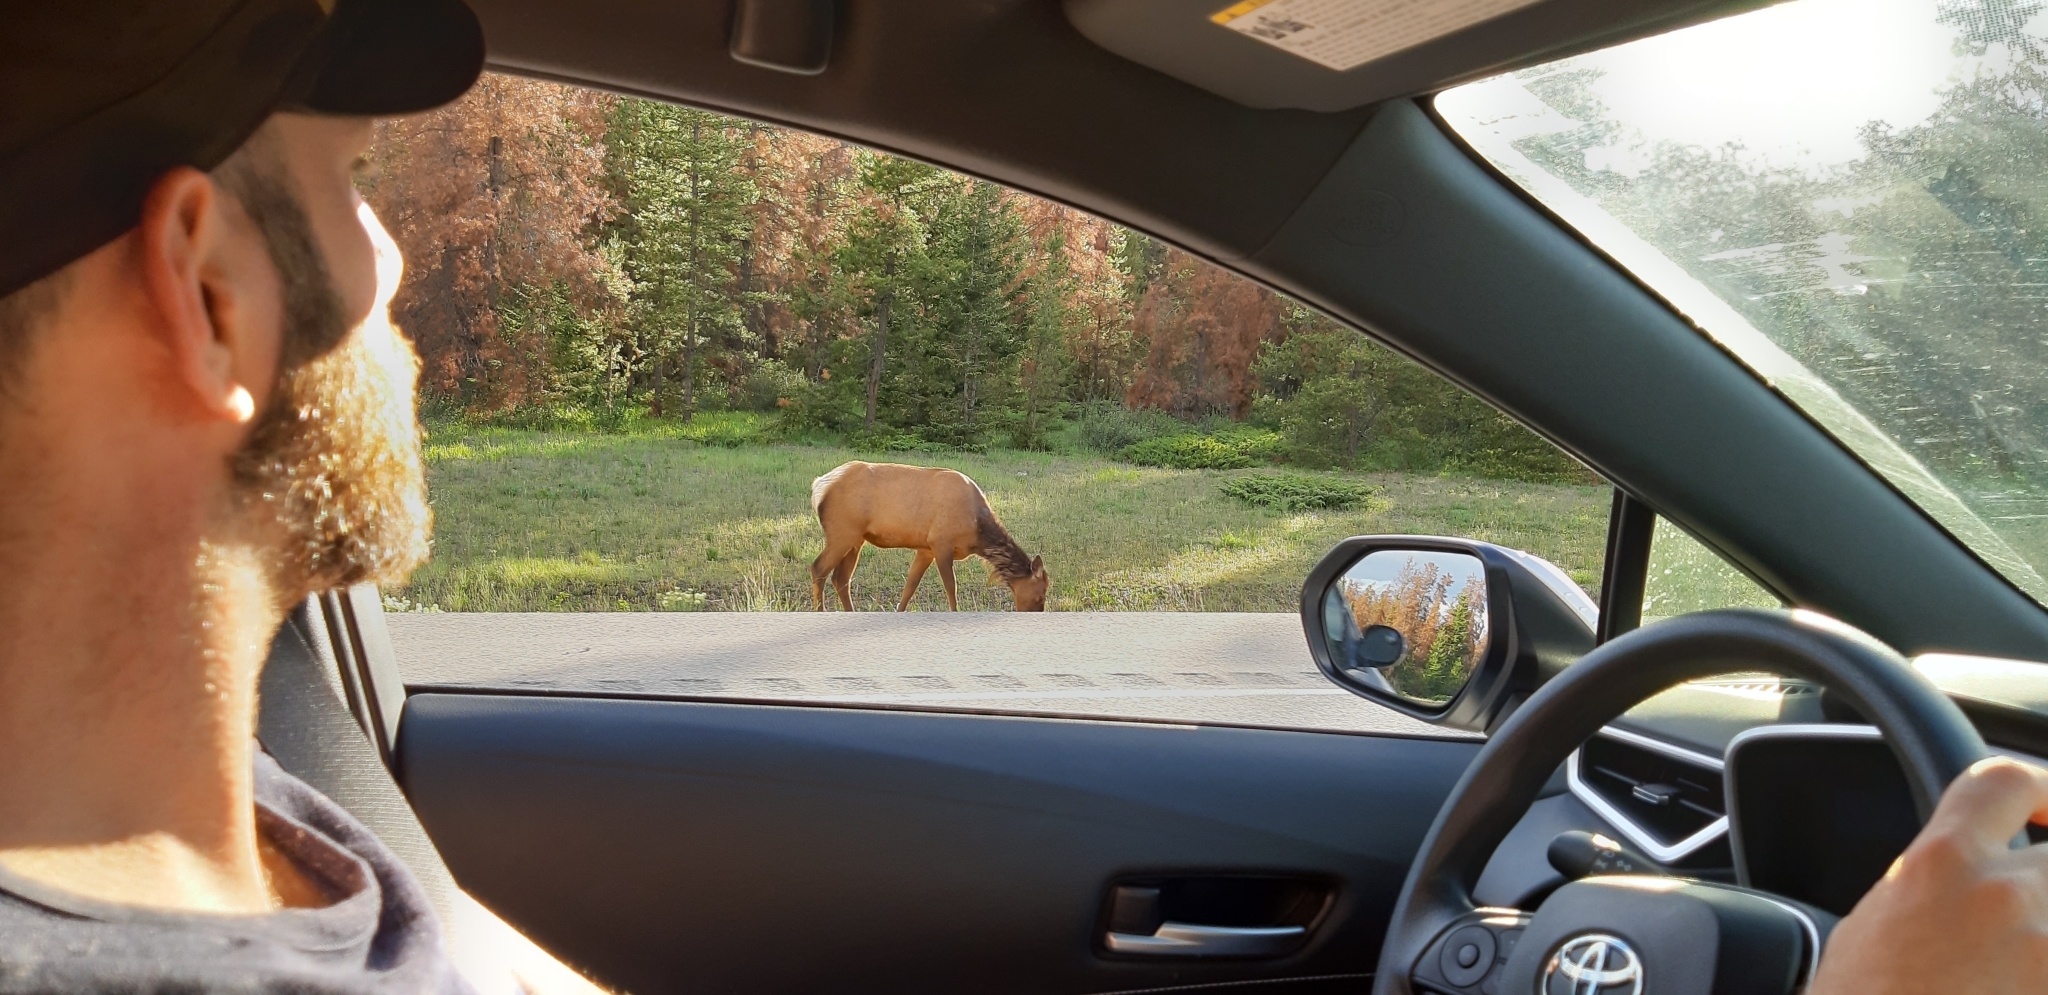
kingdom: Animalia
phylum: Chordata
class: Mammalia
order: Artiodactyla
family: Cervidae
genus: Cervus
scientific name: Cervus elaphus
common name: Red deer
